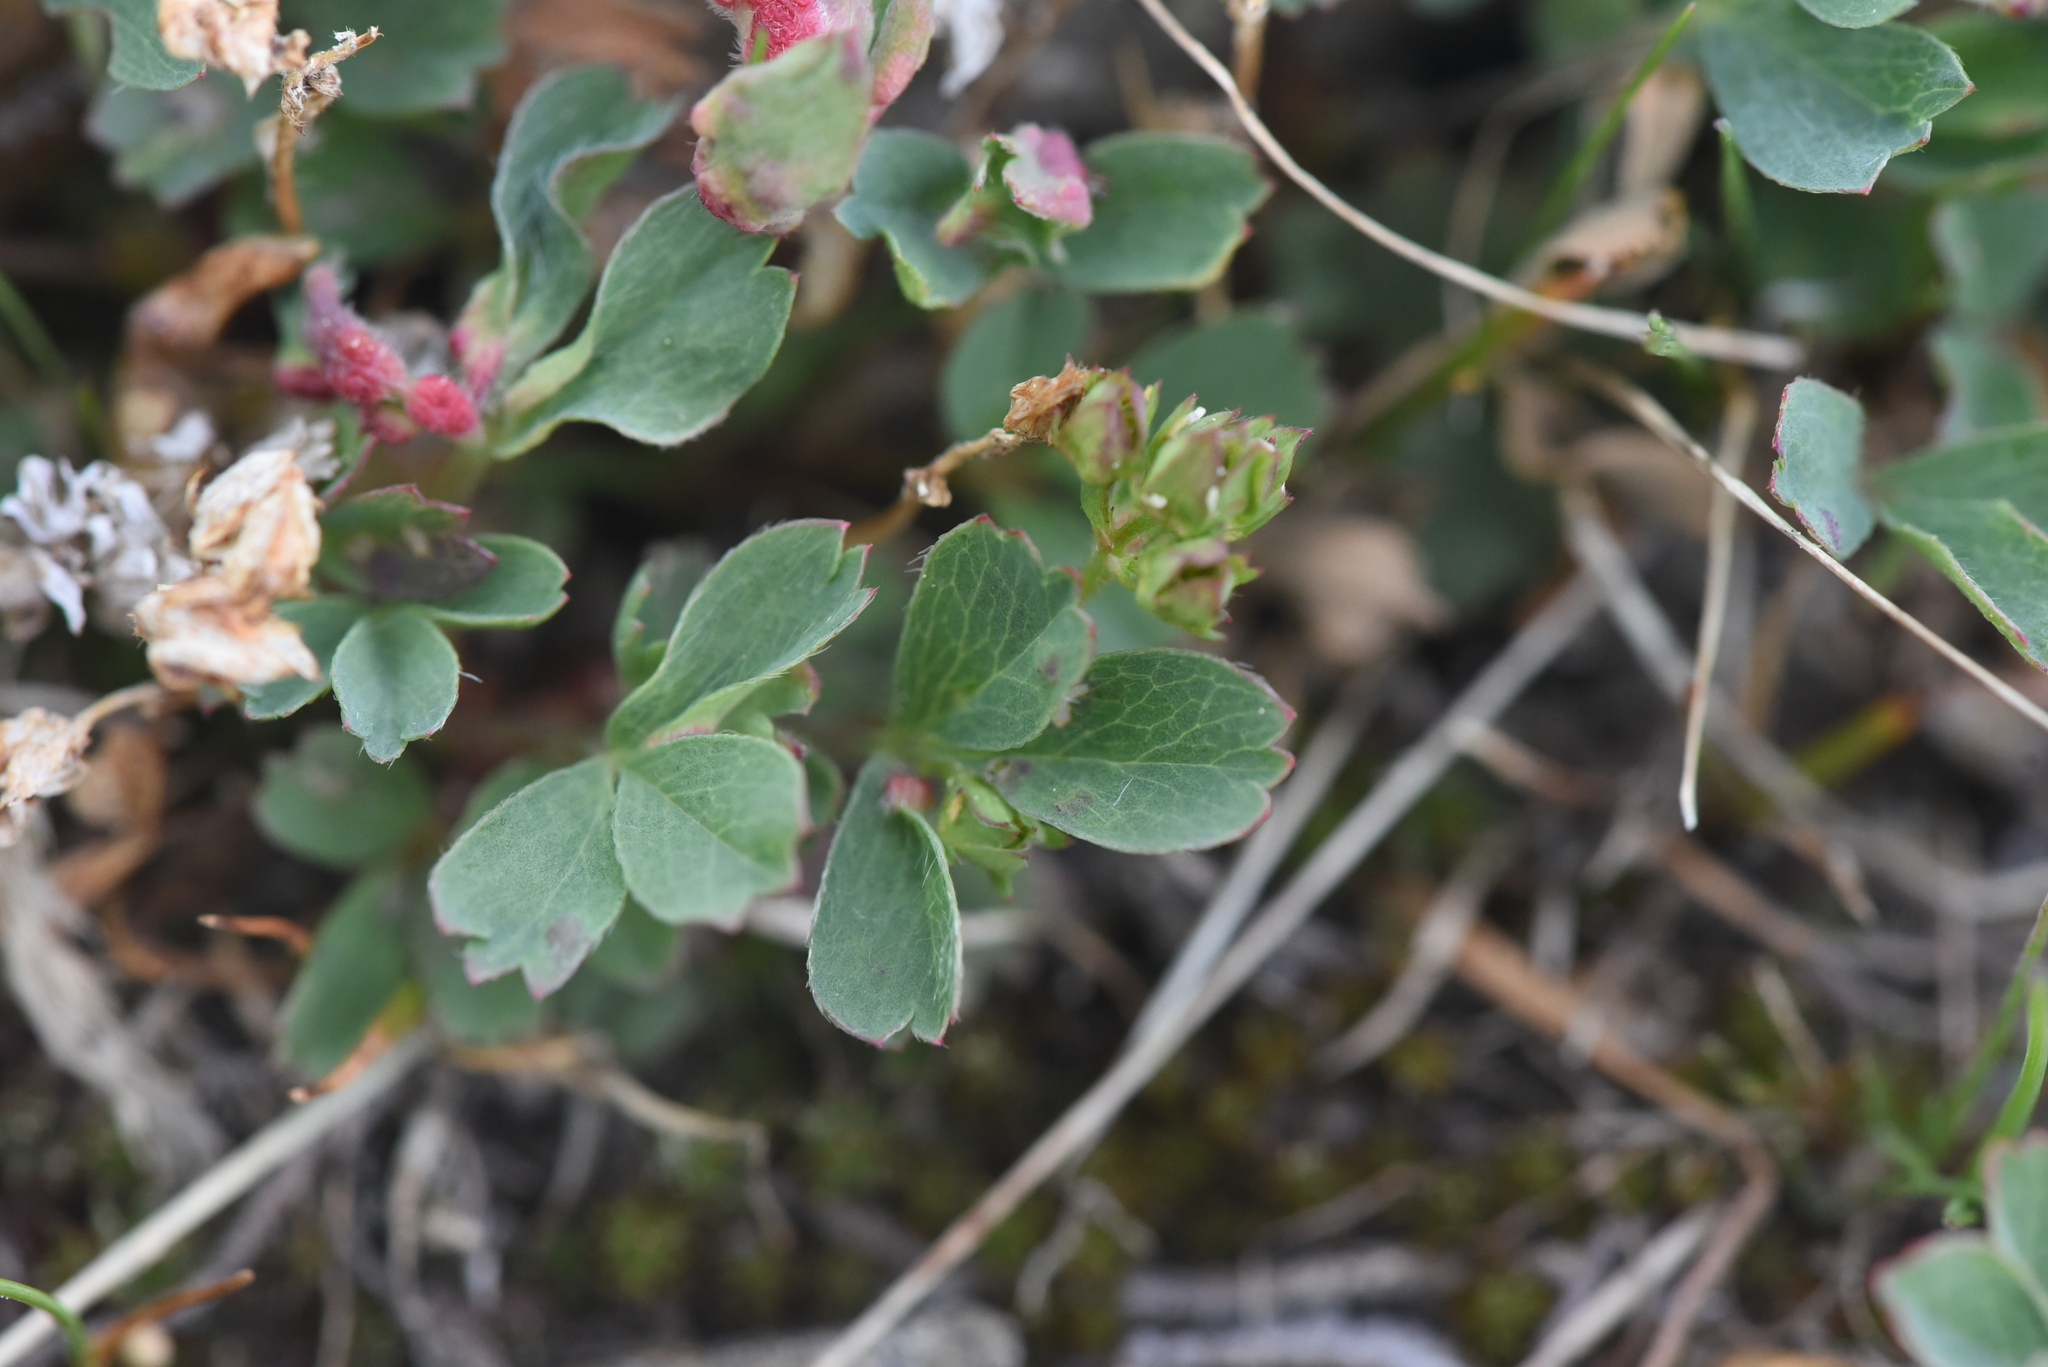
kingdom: Plantae
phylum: Tracheophyta
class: Magnoliopsida
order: Rosales
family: Rosaceae
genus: Sibbaldia
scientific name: Sibbaldia procumbens
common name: Creeping sibbaldia
